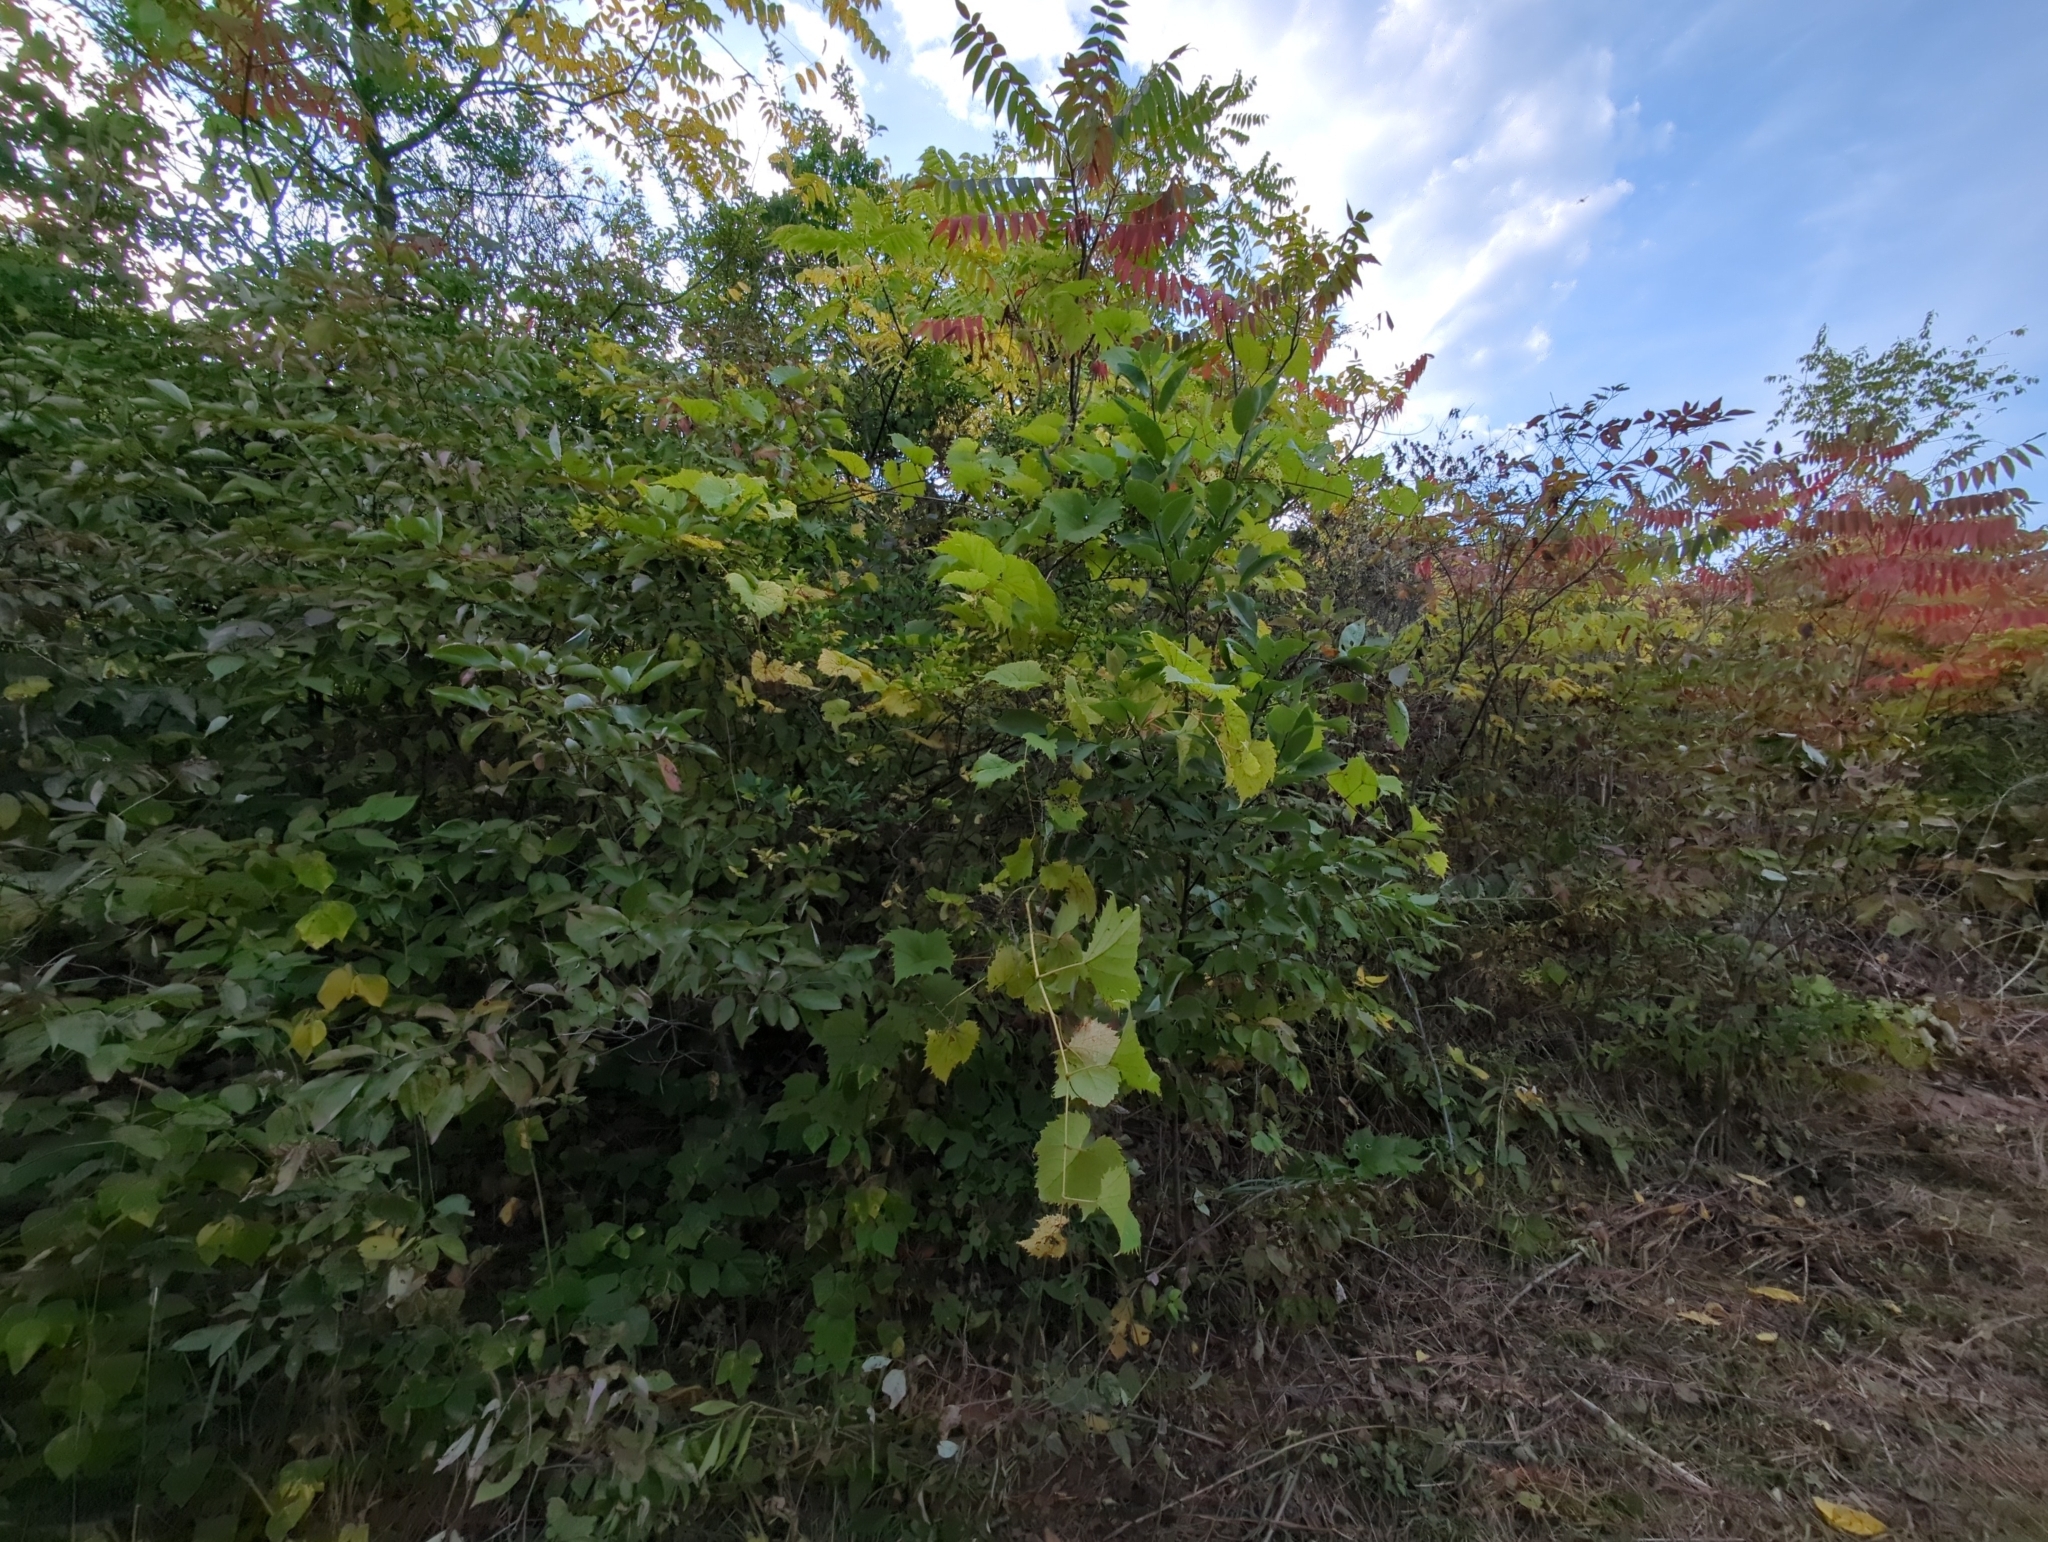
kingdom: Plantae
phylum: Tracheophyta
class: Magnoliopsida
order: Vitales
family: Vitaceae
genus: Vitis
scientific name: Vitis riparia
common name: Frost grape
